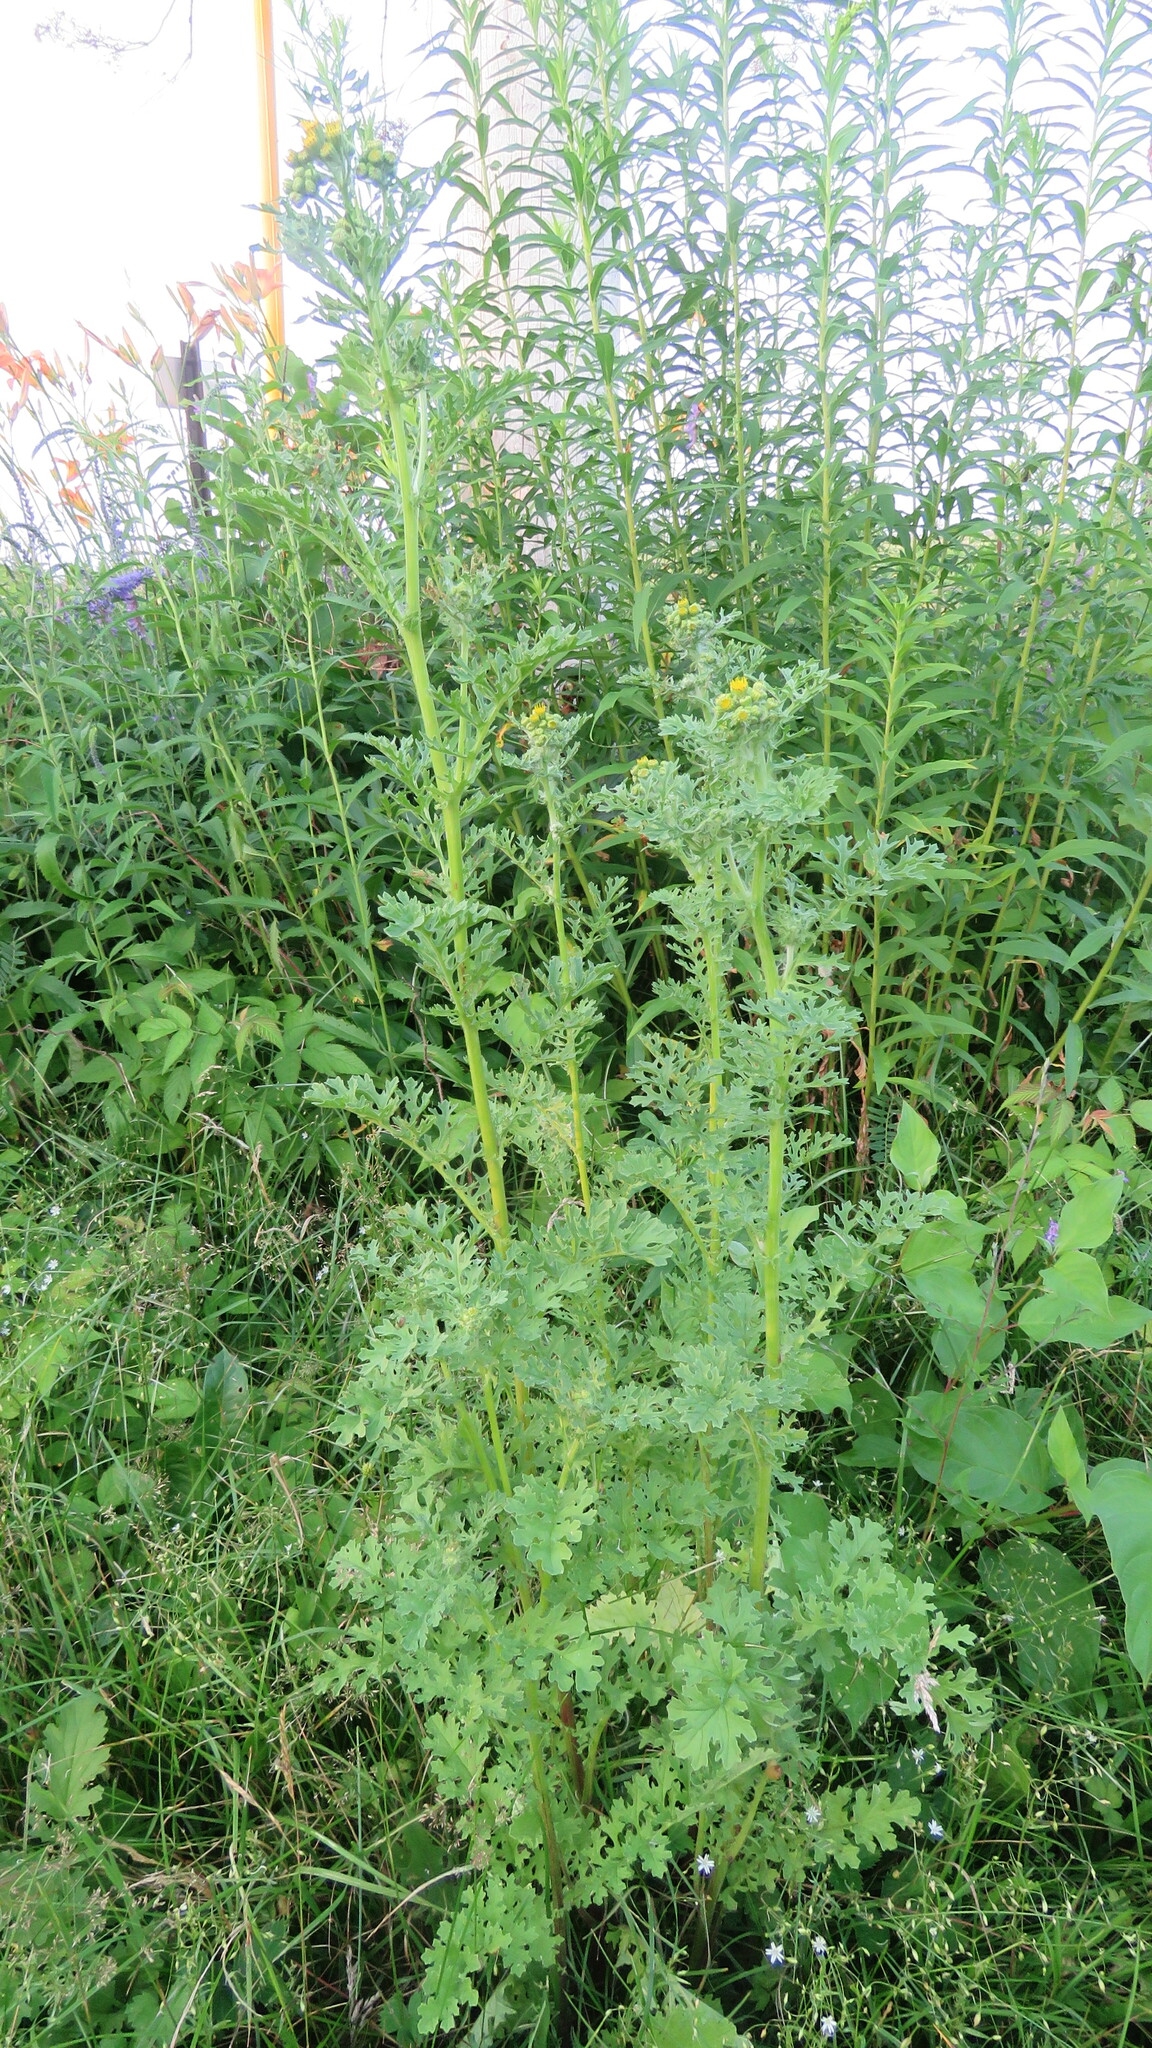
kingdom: Plantae
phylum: Tracheophyta
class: Magnoliopsida
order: Asterales
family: Asteraceae
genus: Jacobaea
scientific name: Jacobaea vulgaris
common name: Stinking willie
